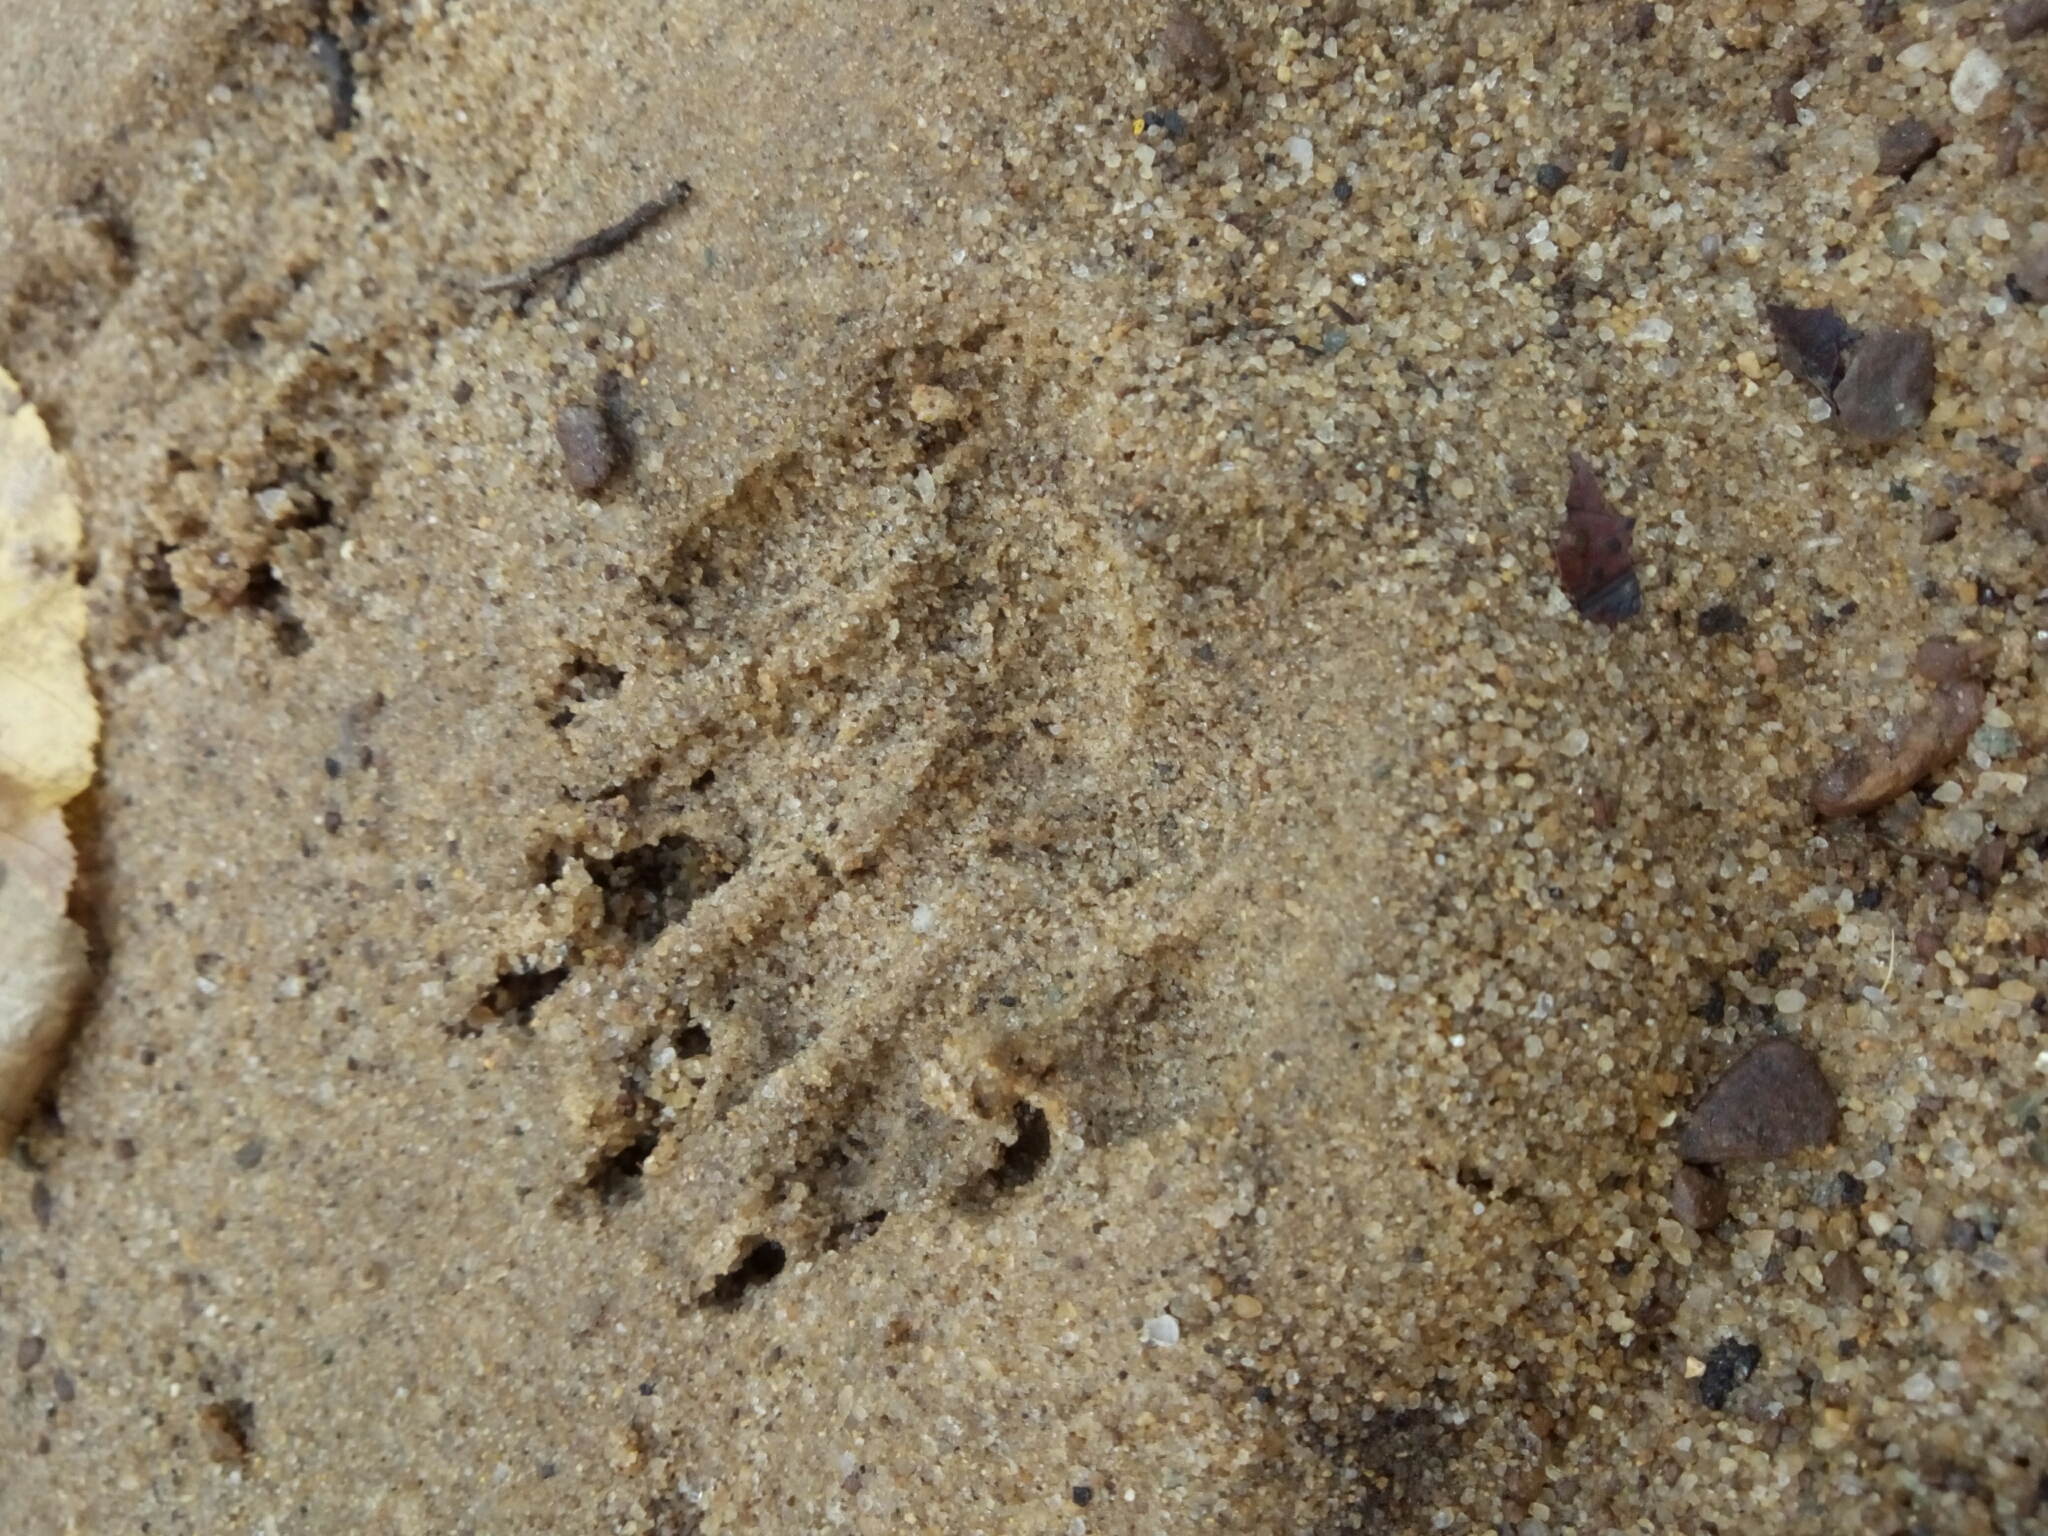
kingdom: Animalia
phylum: Chordata
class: Mammalia
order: Carnivora
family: Procyonidae
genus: Procyon
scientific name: Procyon lotor
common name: Raccoon
